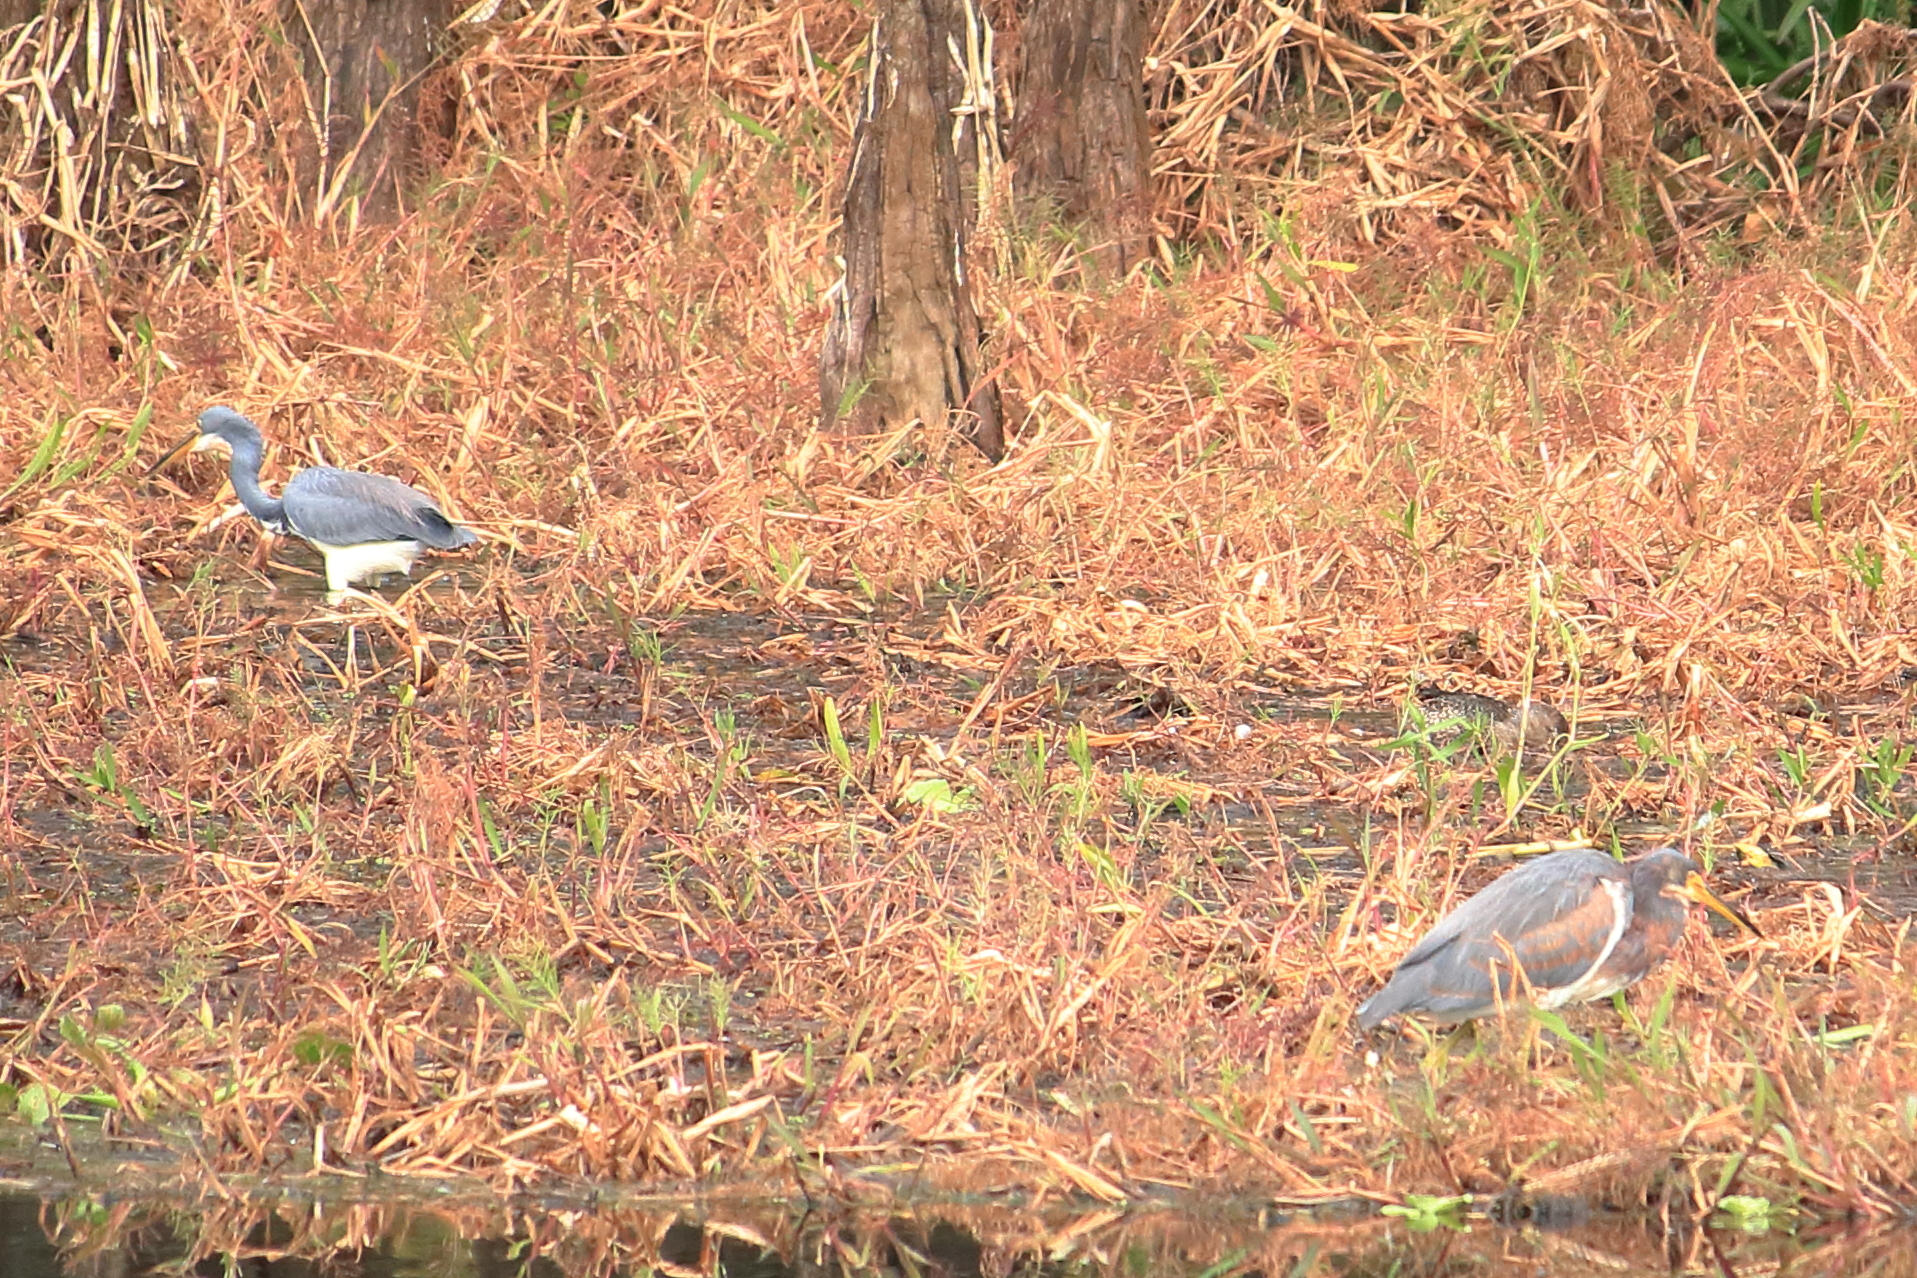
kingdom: Animalia
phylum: Chordata
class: Aves
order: Pelecaniformes
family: Ardeidae
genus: Egretta
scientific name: Egretta tricolor
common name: Tricolored heron
